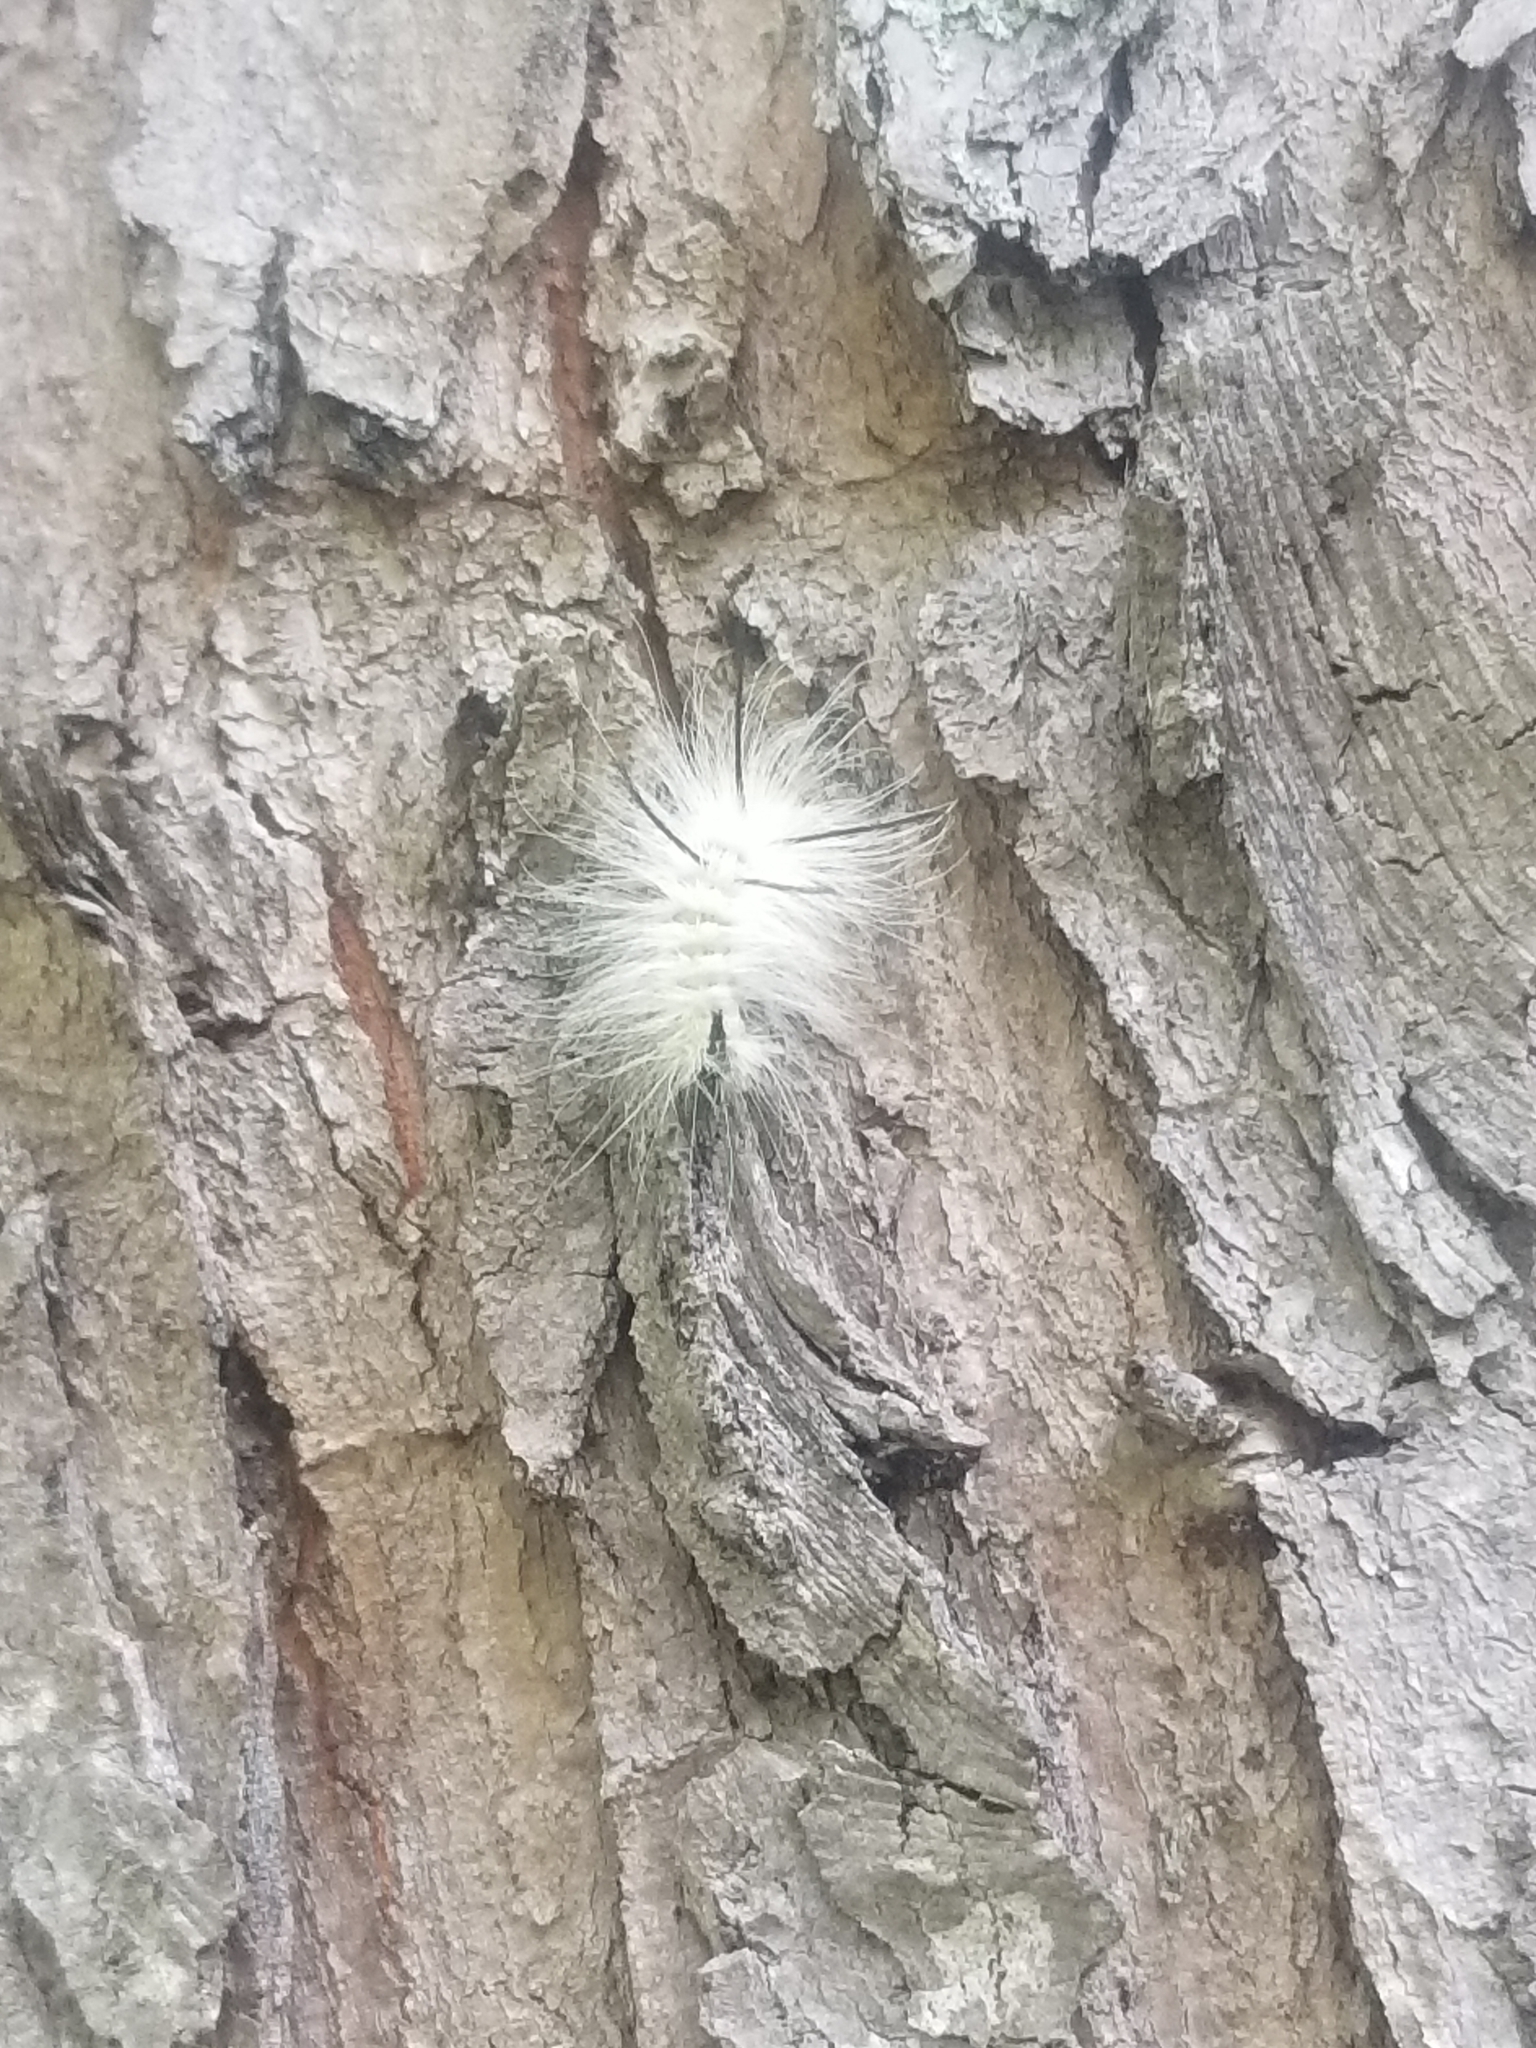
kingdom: Animalia
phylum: Arthropoda
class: Insecta
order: Lepidoptera
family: Noctuidae
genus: Acronicta
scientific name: Acronicta americana
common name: American dagger
